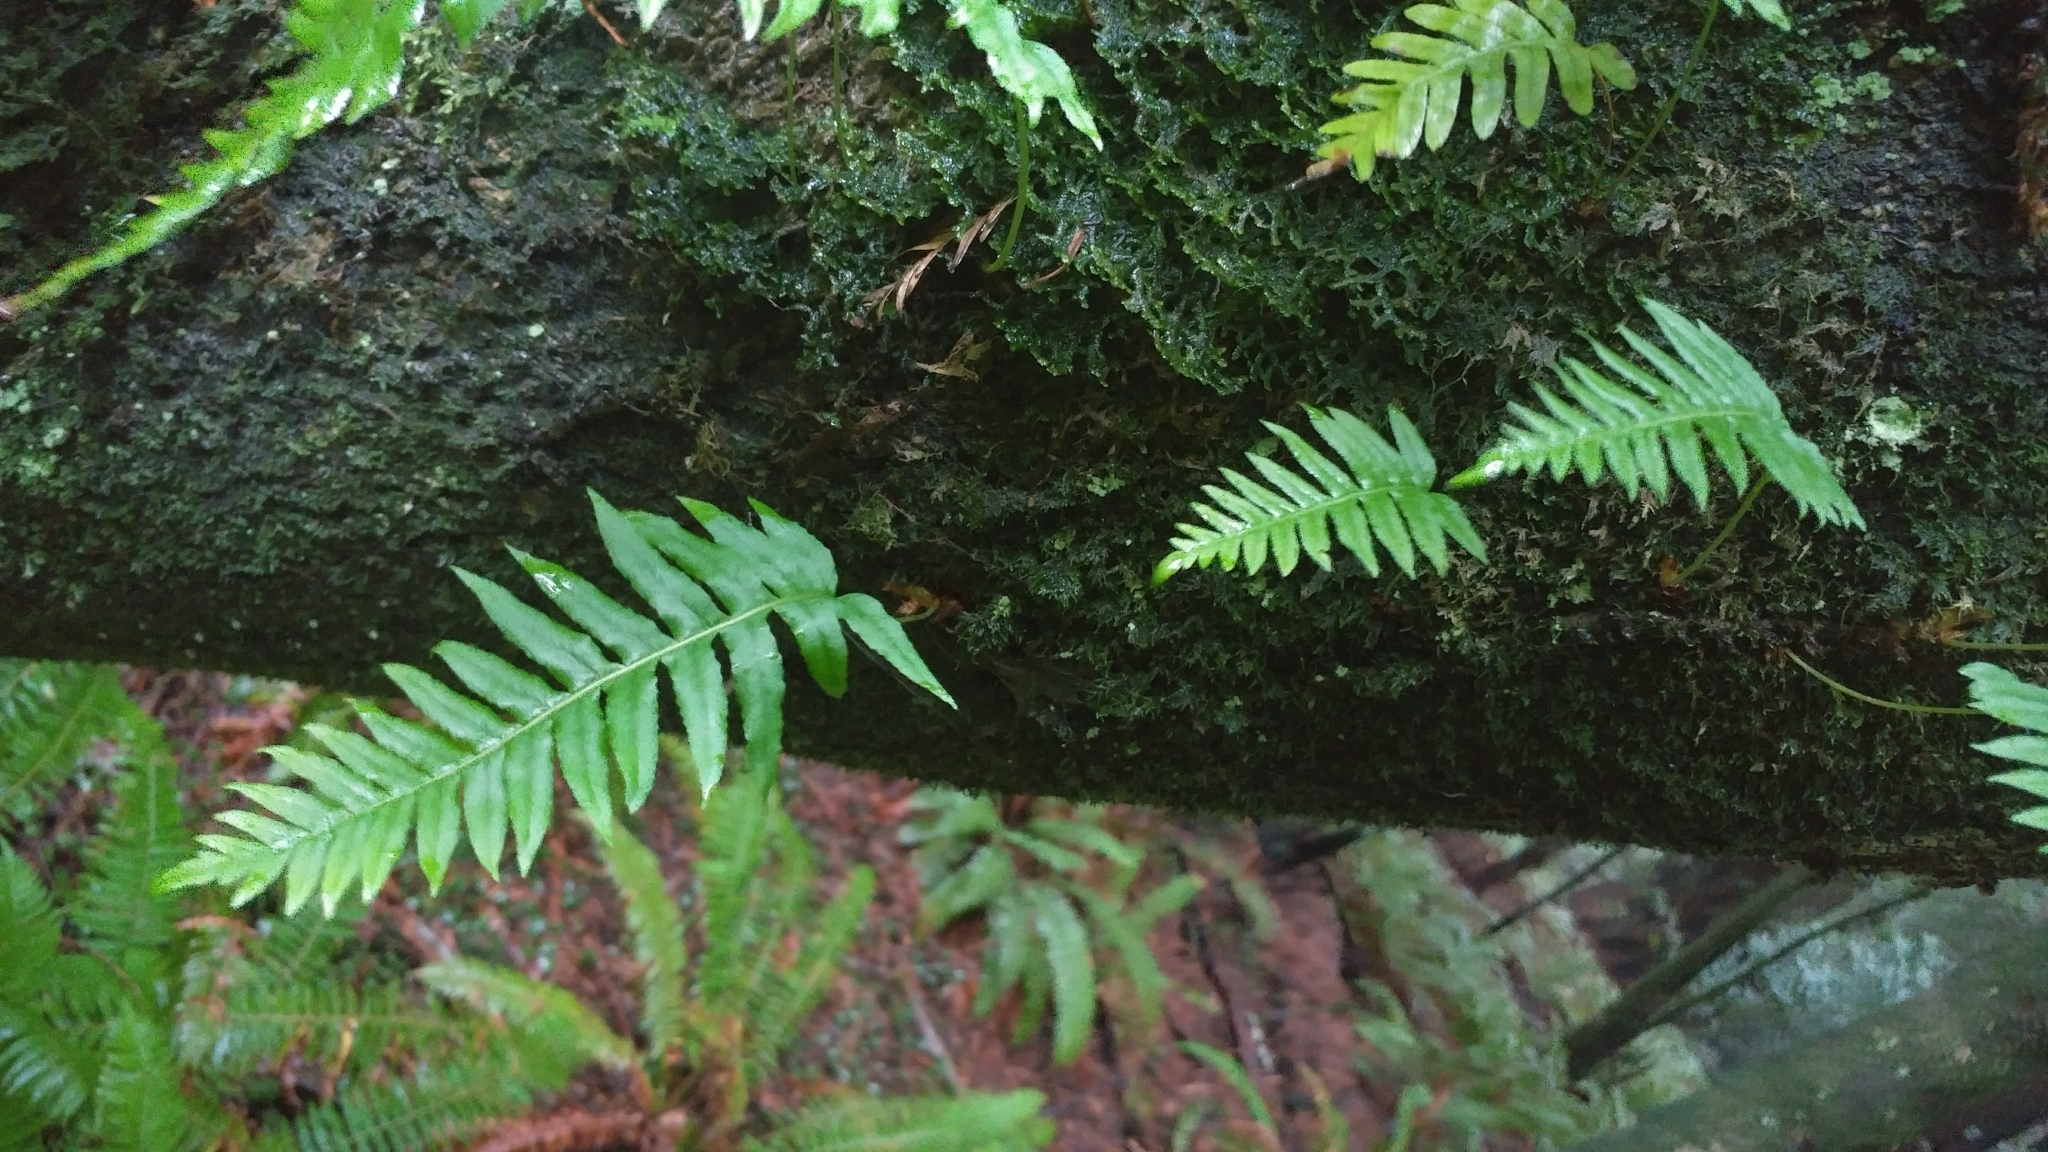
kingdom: Plantae
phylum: Tracheophyta
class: Polypodiopsida
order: Polypodiales
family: Polypodiaceae
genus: Polypodium
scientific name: Polypodium glycyrrhiza
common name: Licorice fern
